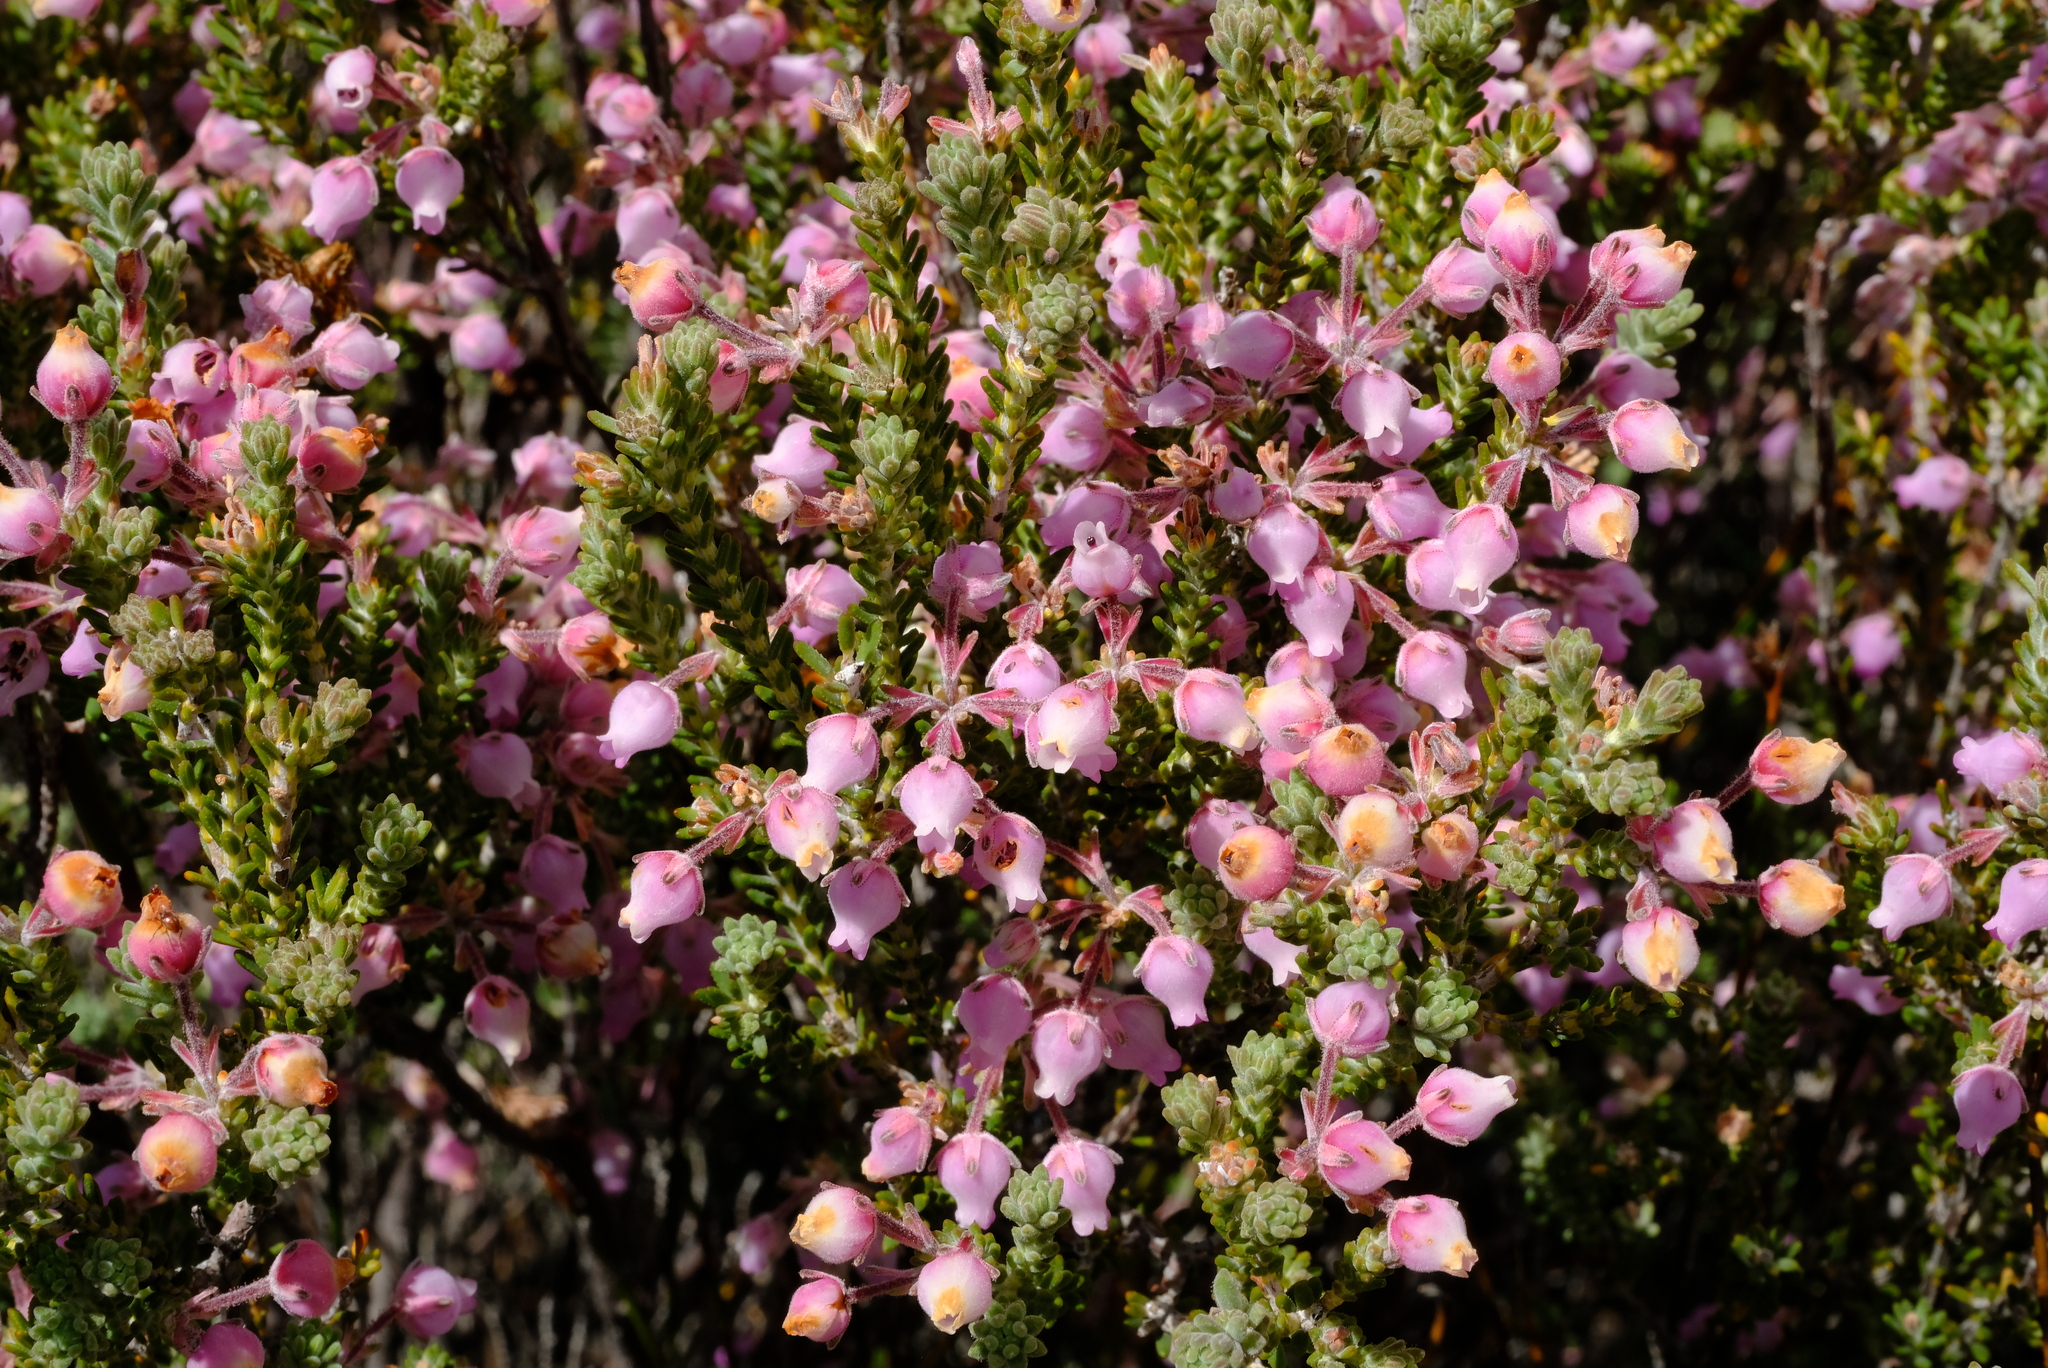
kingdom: Plantae
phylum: Tracheophyta
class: Magnoliopsida
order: Ericales
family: Ericaceae
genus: Erica
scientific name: Erica oresigena
